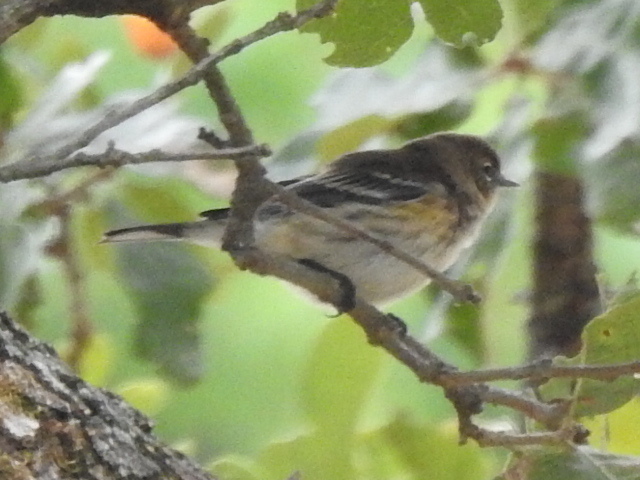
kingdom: Animalia
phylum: Chordata
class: Aves
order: Passeriformes
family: Parulidae
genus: Setophaga
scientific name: Setophaga coronata
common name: Myrtle warbler
